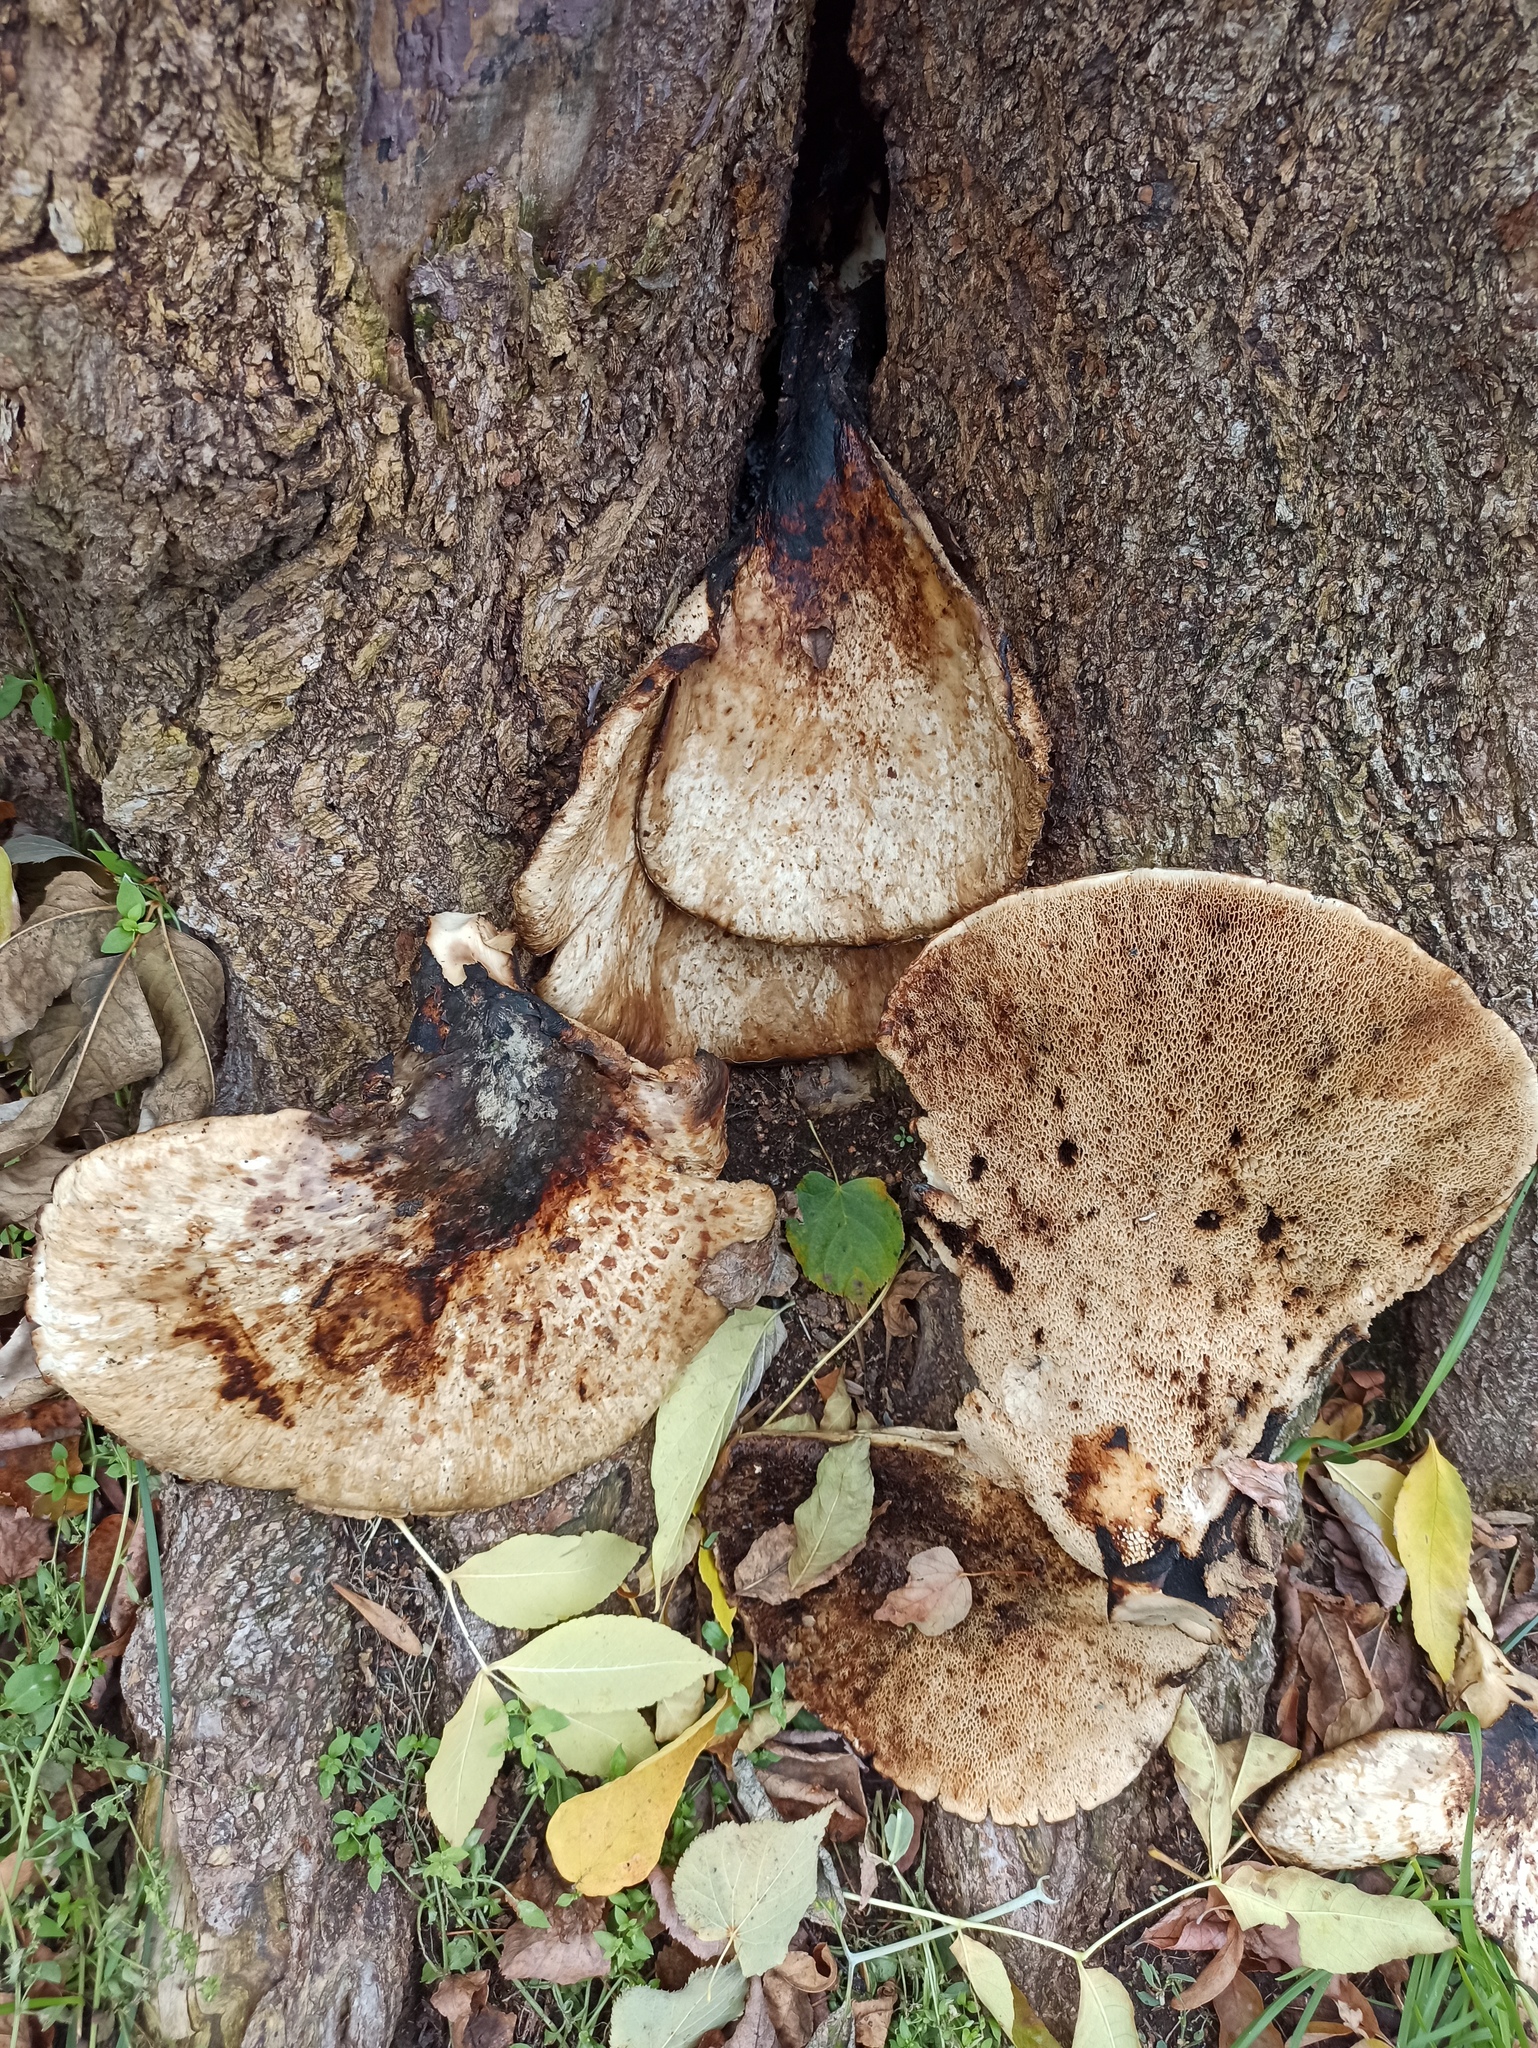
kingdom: Fungi
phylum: Basidiomycota
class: Agaricomycetes
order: Polyporales
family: Polyporaceae
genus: Cerioporus
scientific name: Cerioporus squamosus
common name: Dryad's saddle
